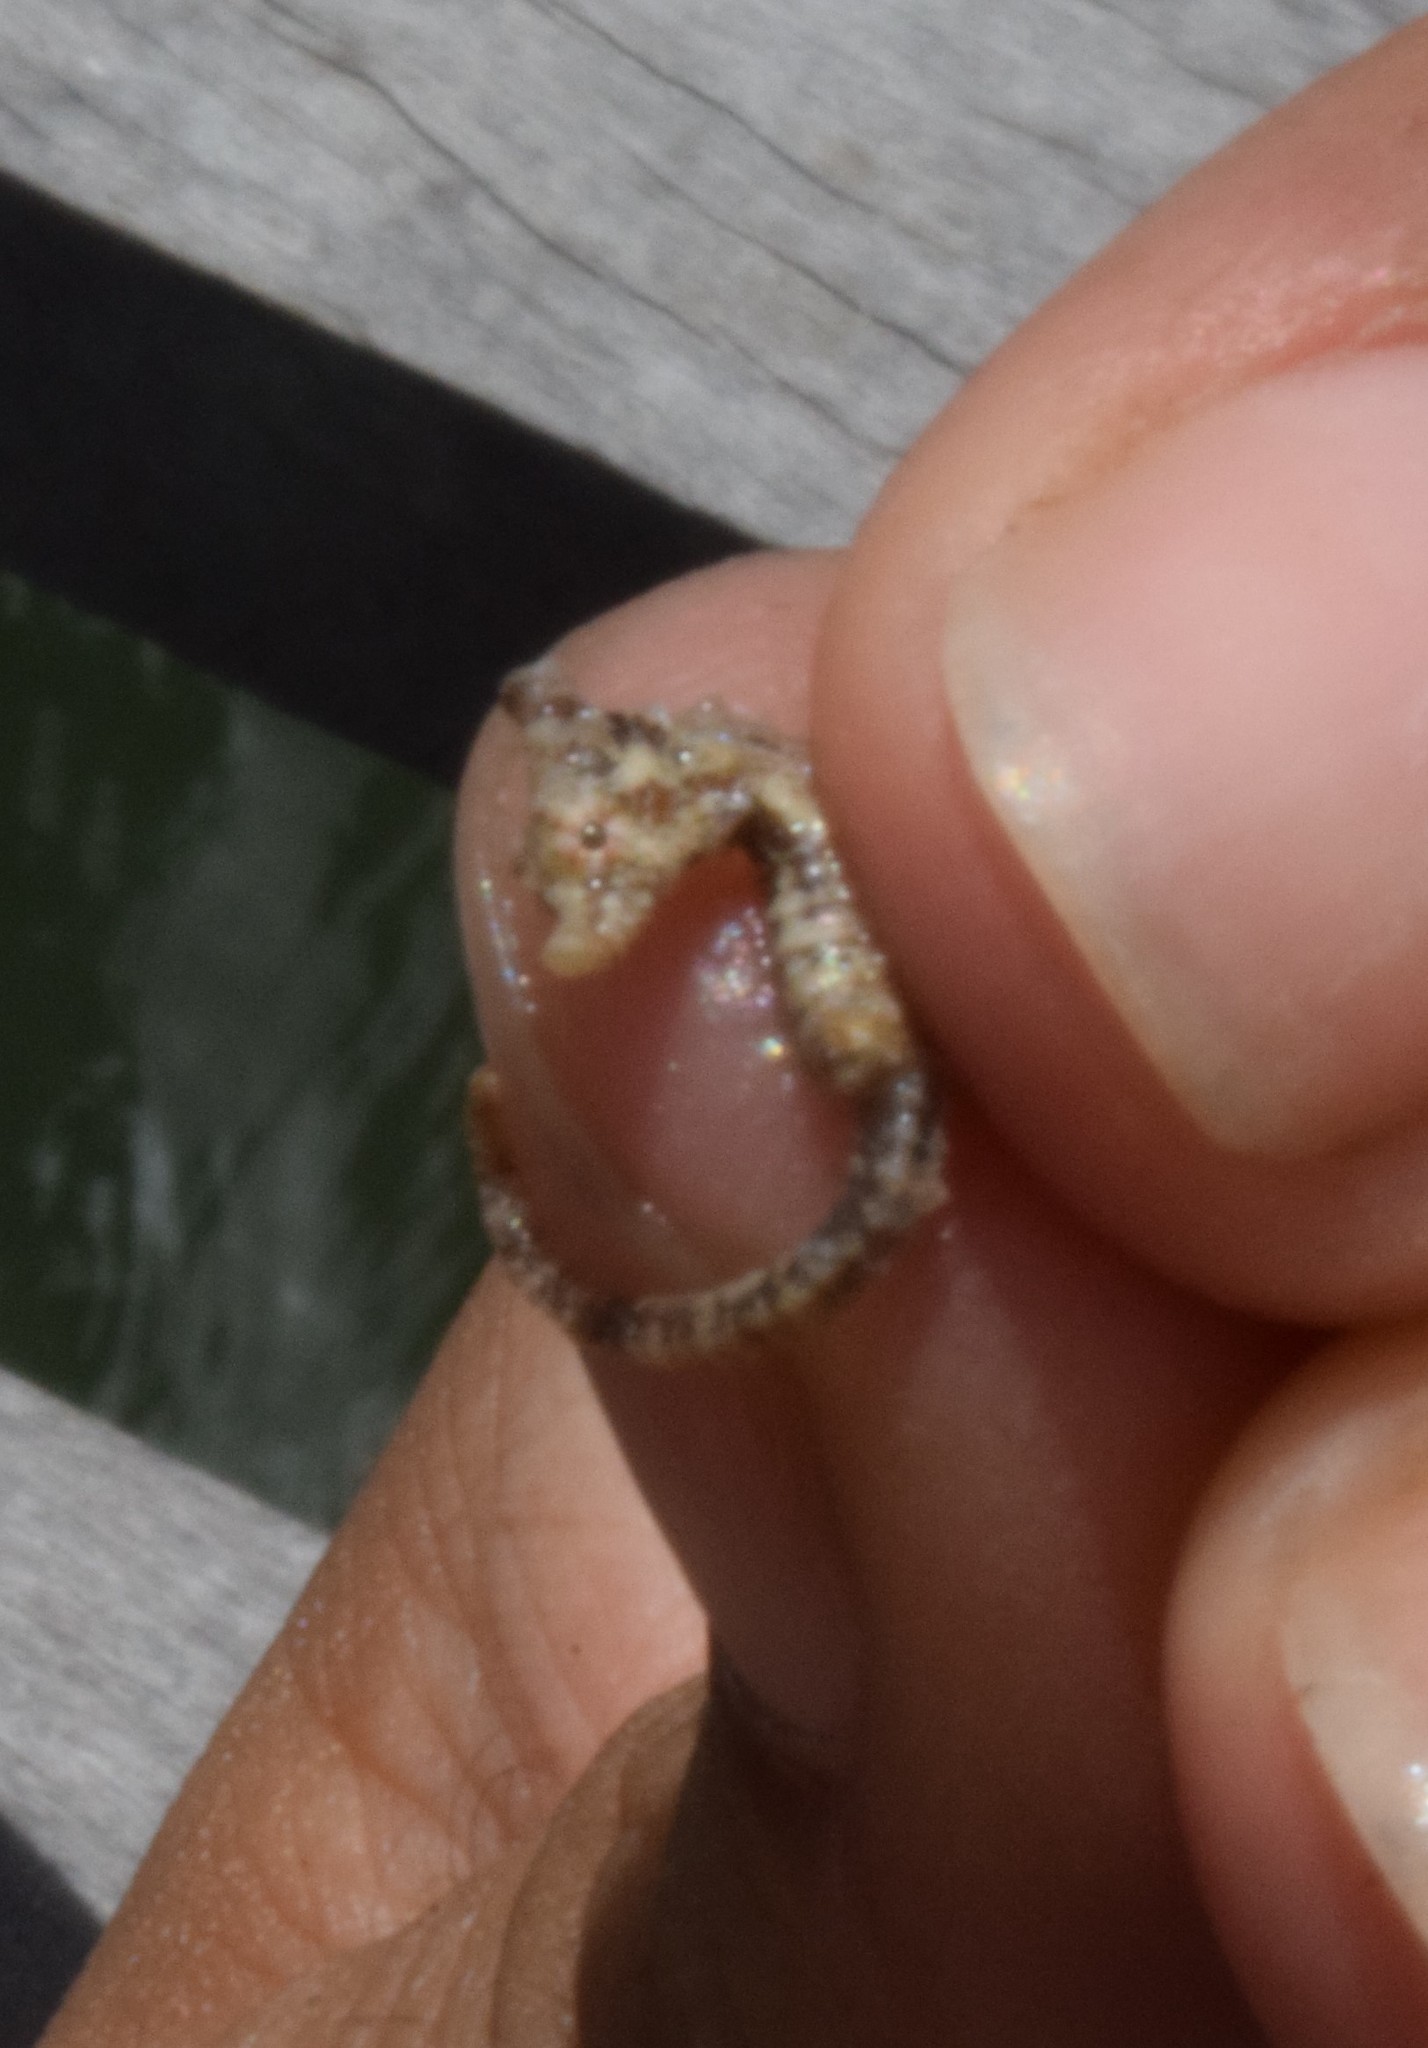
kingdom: Animalia
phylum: Chordata
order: Syngnathiformes
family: Syngnathidae
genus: Hippocampus
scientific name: Hippocampus zosterae
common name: Dwarf seahorse
